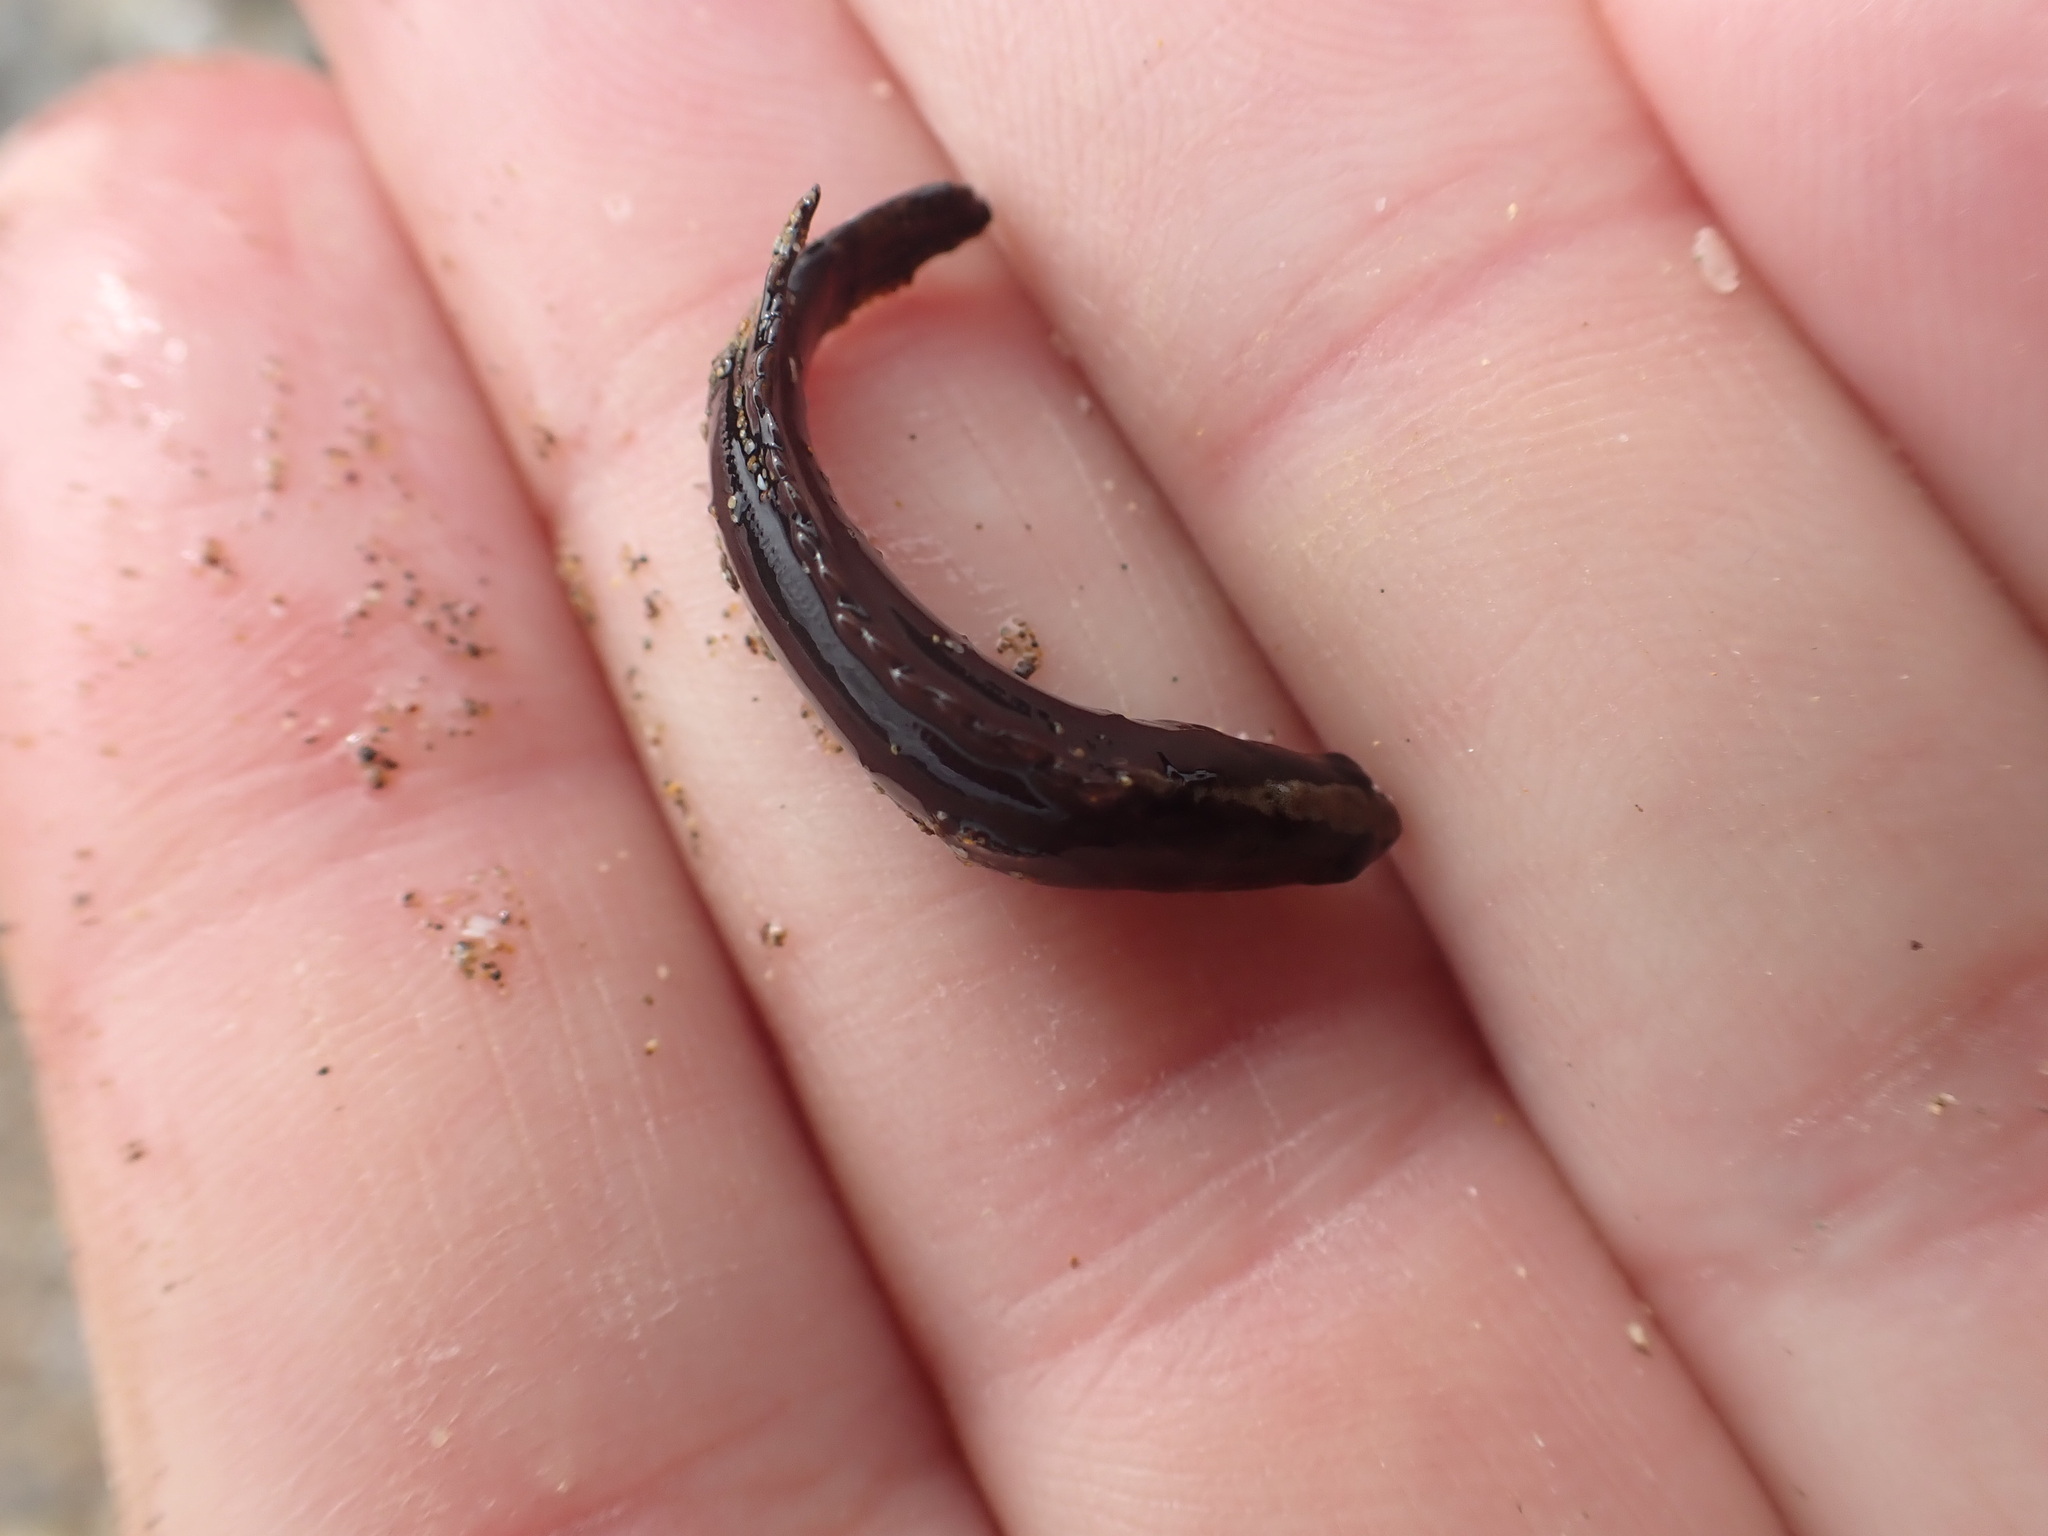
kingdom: Animalia
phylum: Chordata
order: Perciformes
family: Plesiopidae
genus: Acanthoclinus
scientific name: Acanthoclinus fuscus
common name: Olive rockfish
